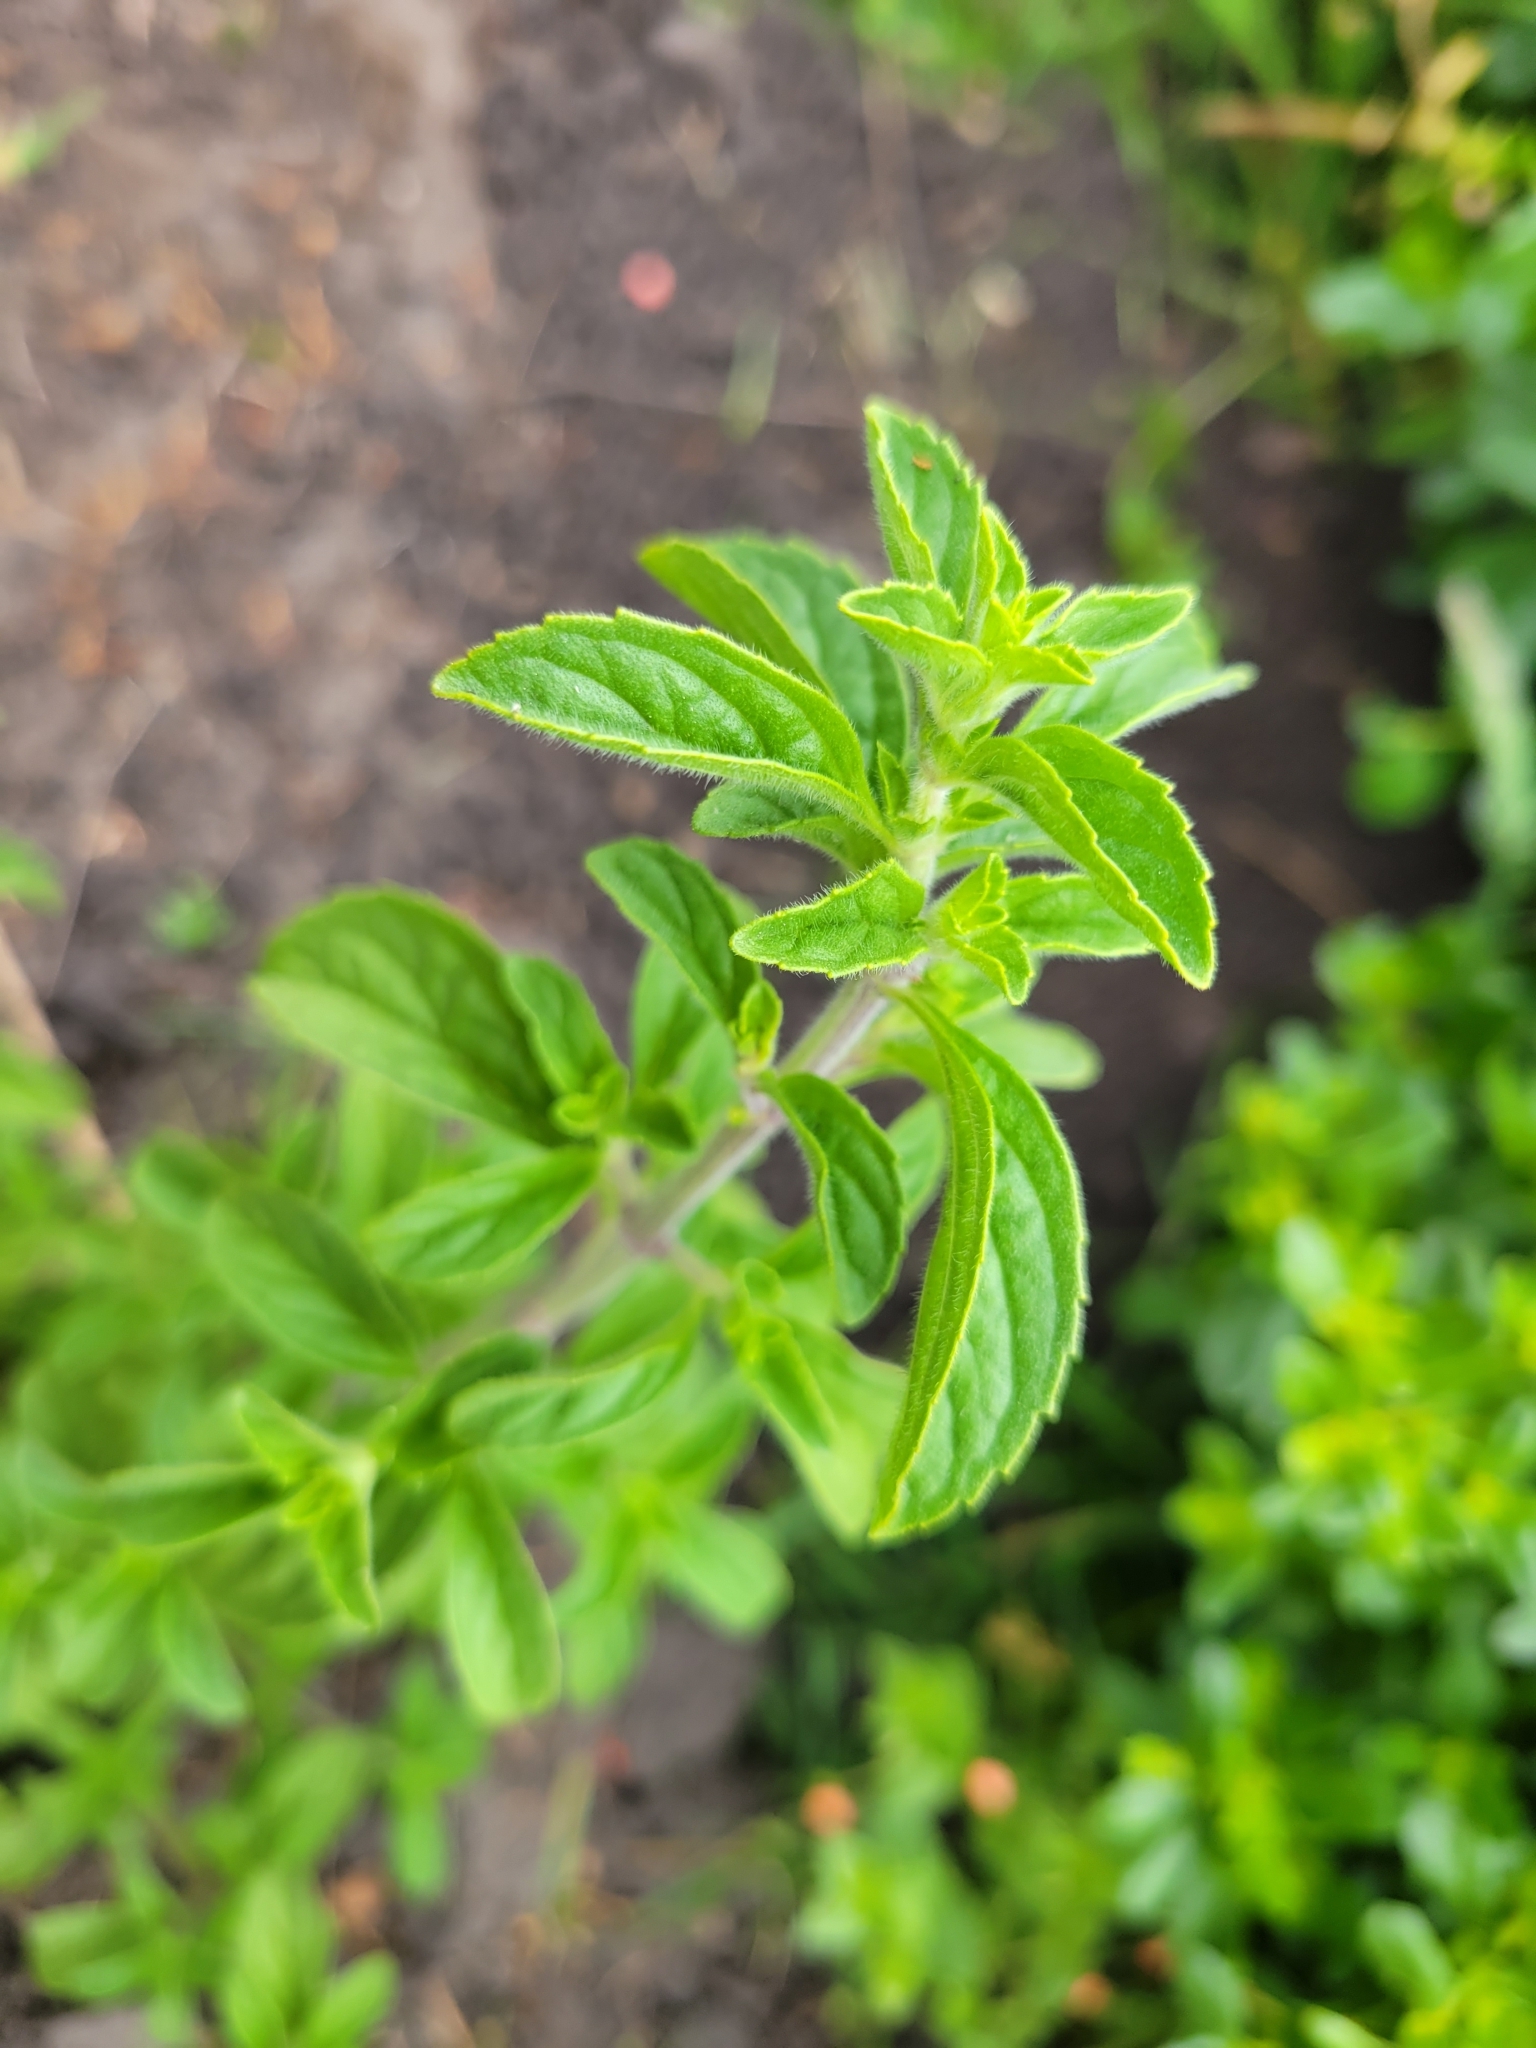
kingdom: Plantae
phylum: Tracheophyta
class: Magnoliopsida
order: Lamiales
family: Lamiaceae
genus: Mentha
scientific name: Mentha pulegium
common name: Pennyroyal
